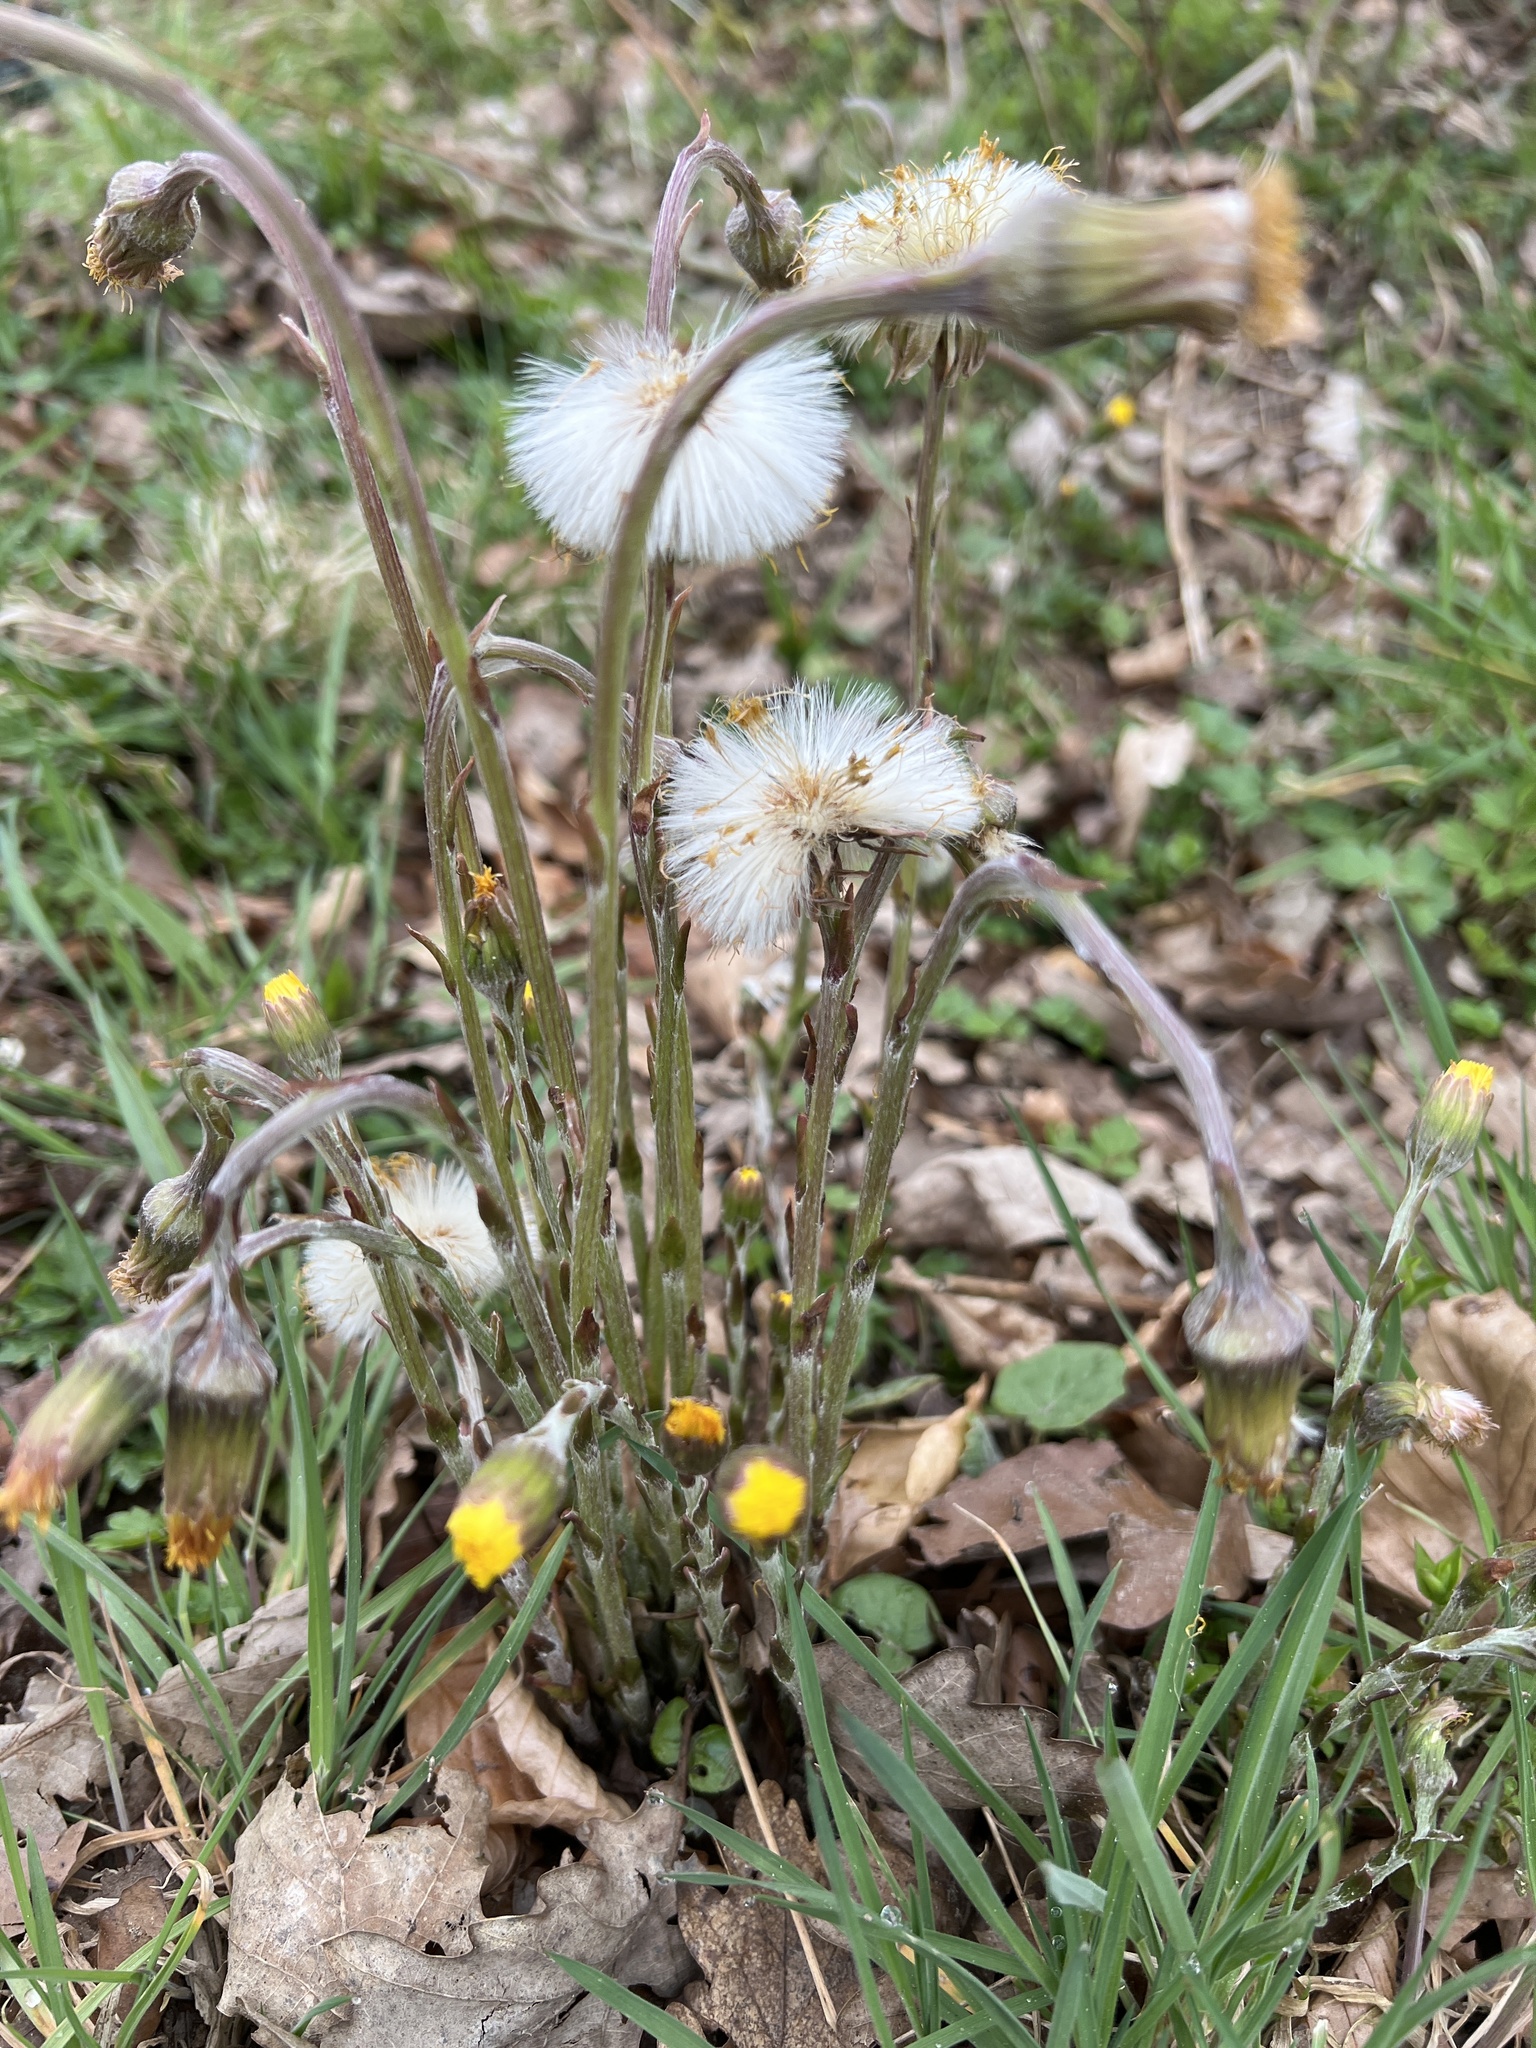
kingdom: Plantae
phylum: Tracheophyta
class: Magnoliopsida
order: Asterales
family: Asteraceae
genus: Tussilago
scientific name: Tussilago farfara
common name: Coltsfoot
